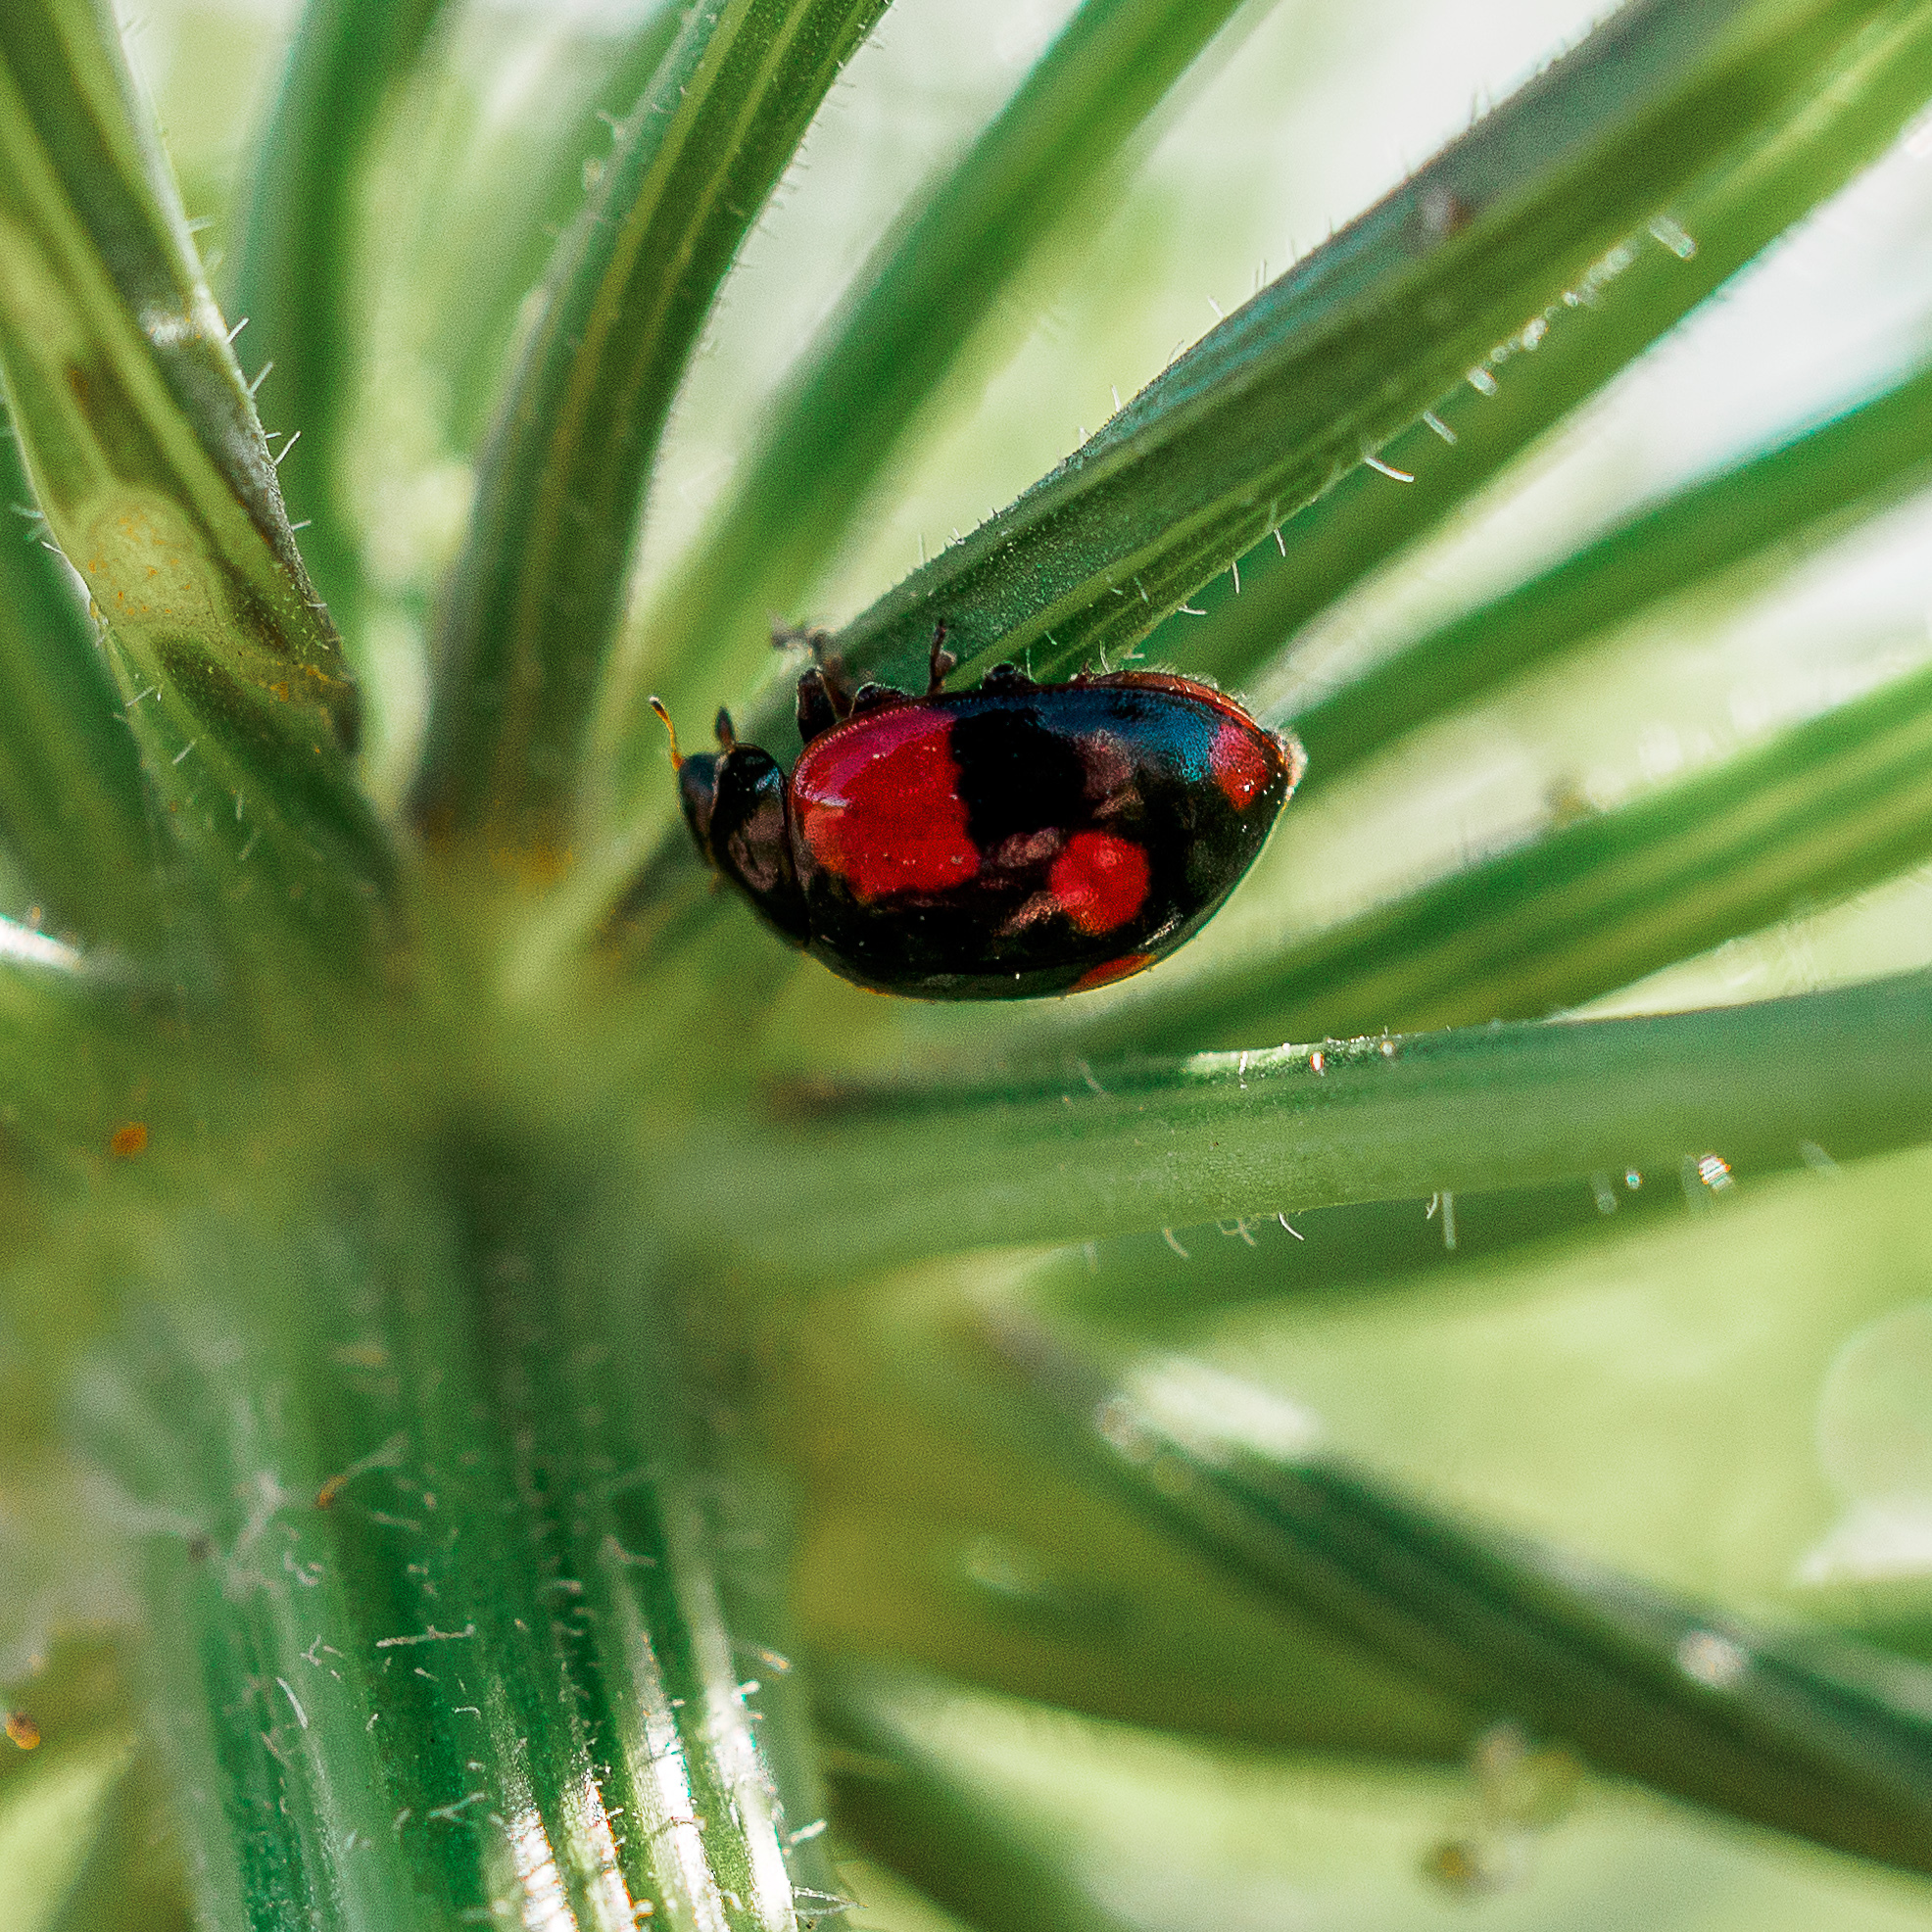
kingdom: Animalia
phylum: Arthropoda
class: Insecta
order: Coleoptera
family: Coccinellidae
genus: Adalia
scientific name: Adalia bipunctata
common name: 2-spot ladybird
